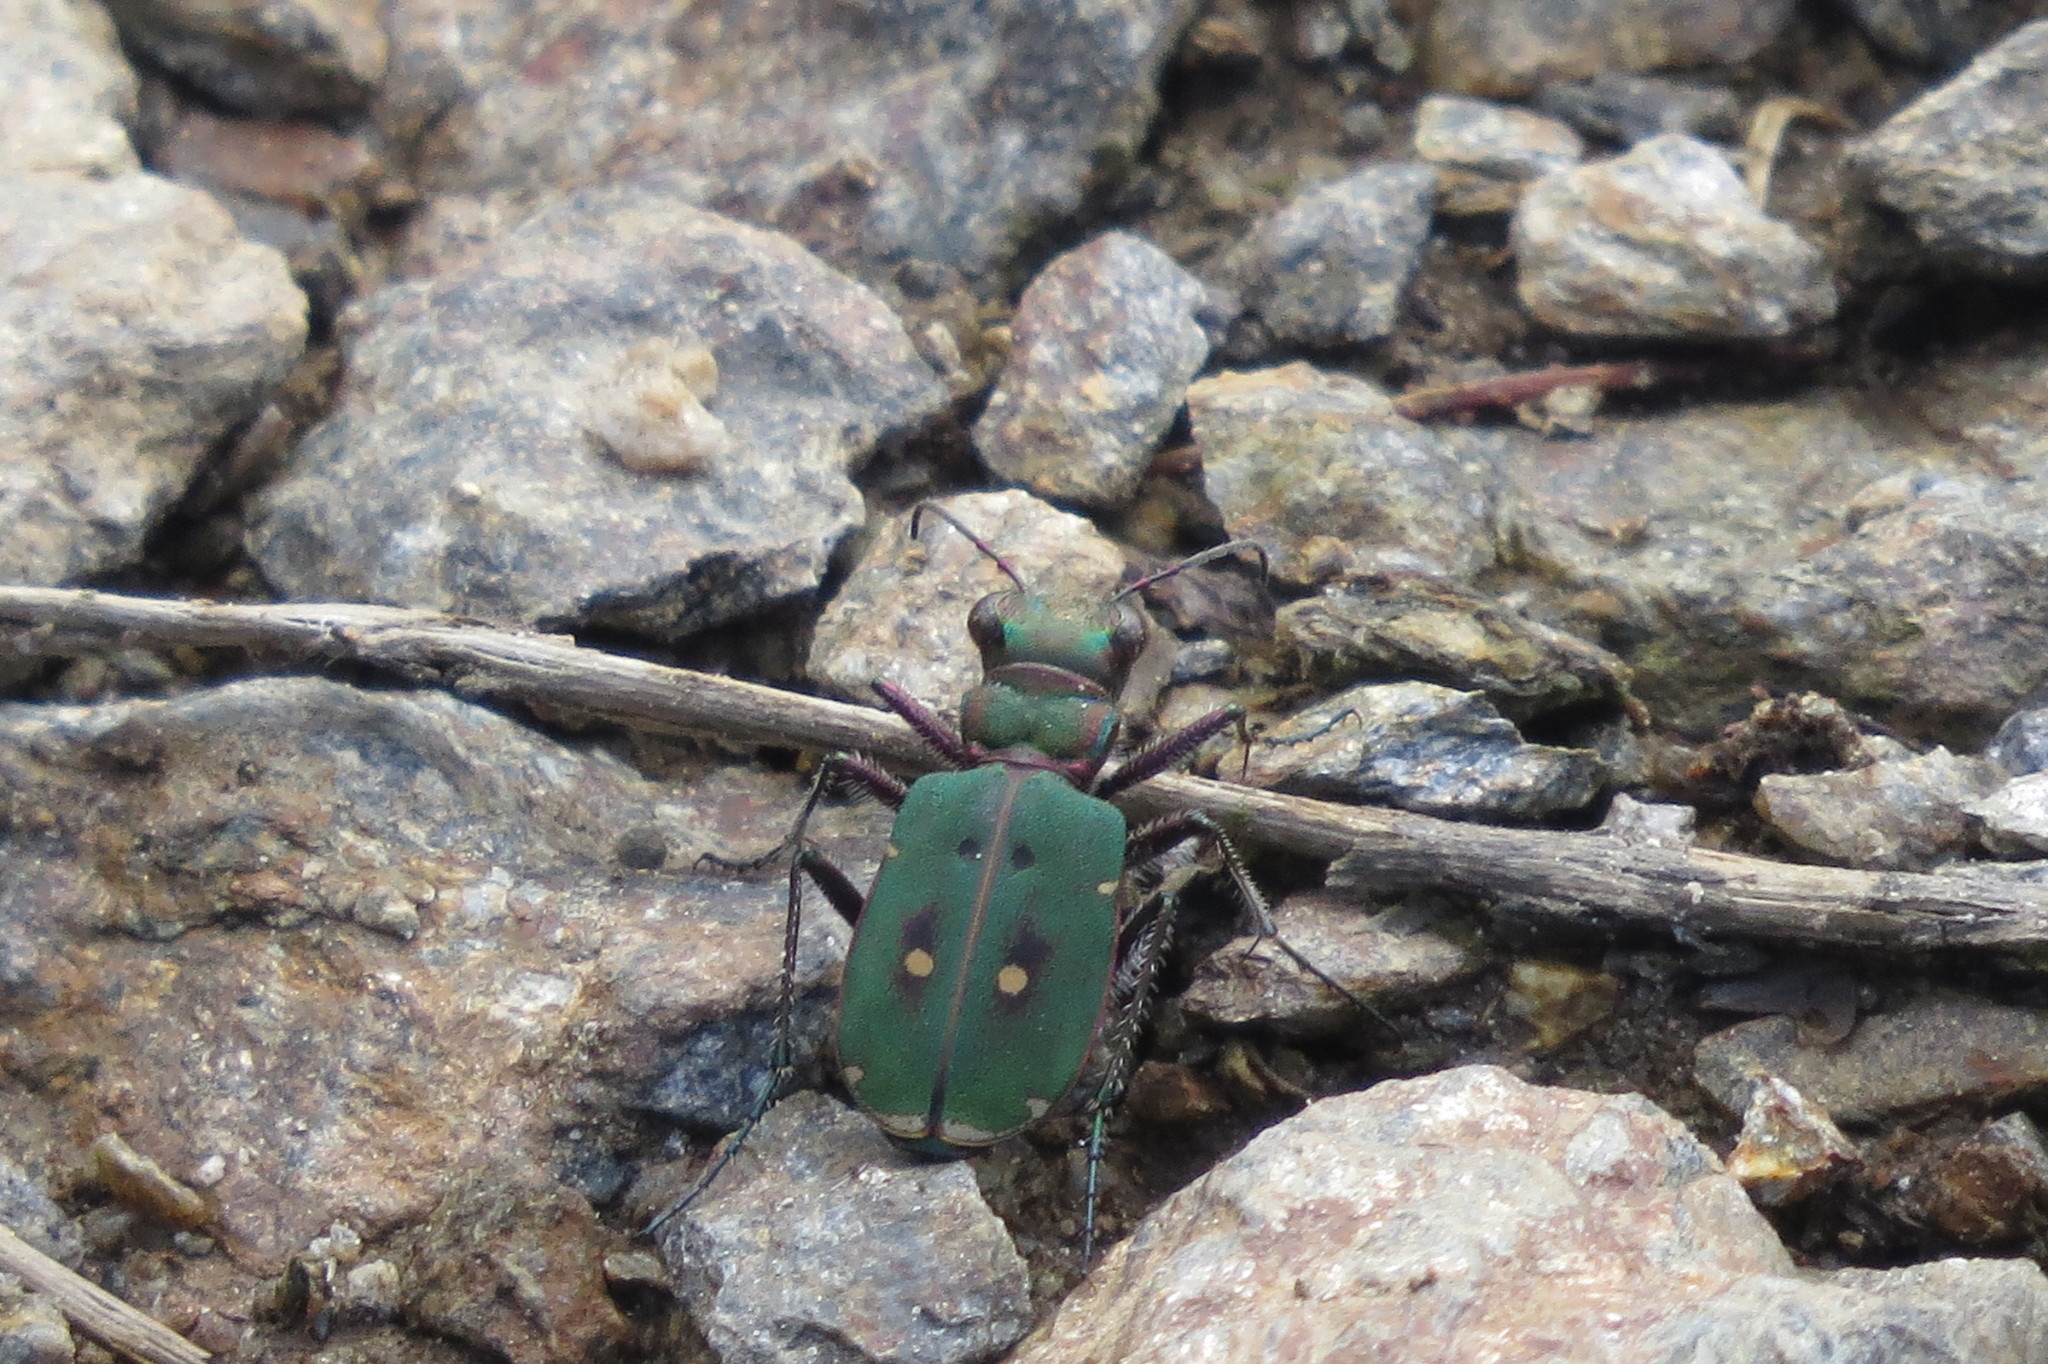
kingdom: Animalia
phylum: Arthropoda
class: Insecta
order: Coleoptera
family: Carabidae
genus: Cicindela
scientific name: Cicindela campestris
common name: Common tiger beetle
